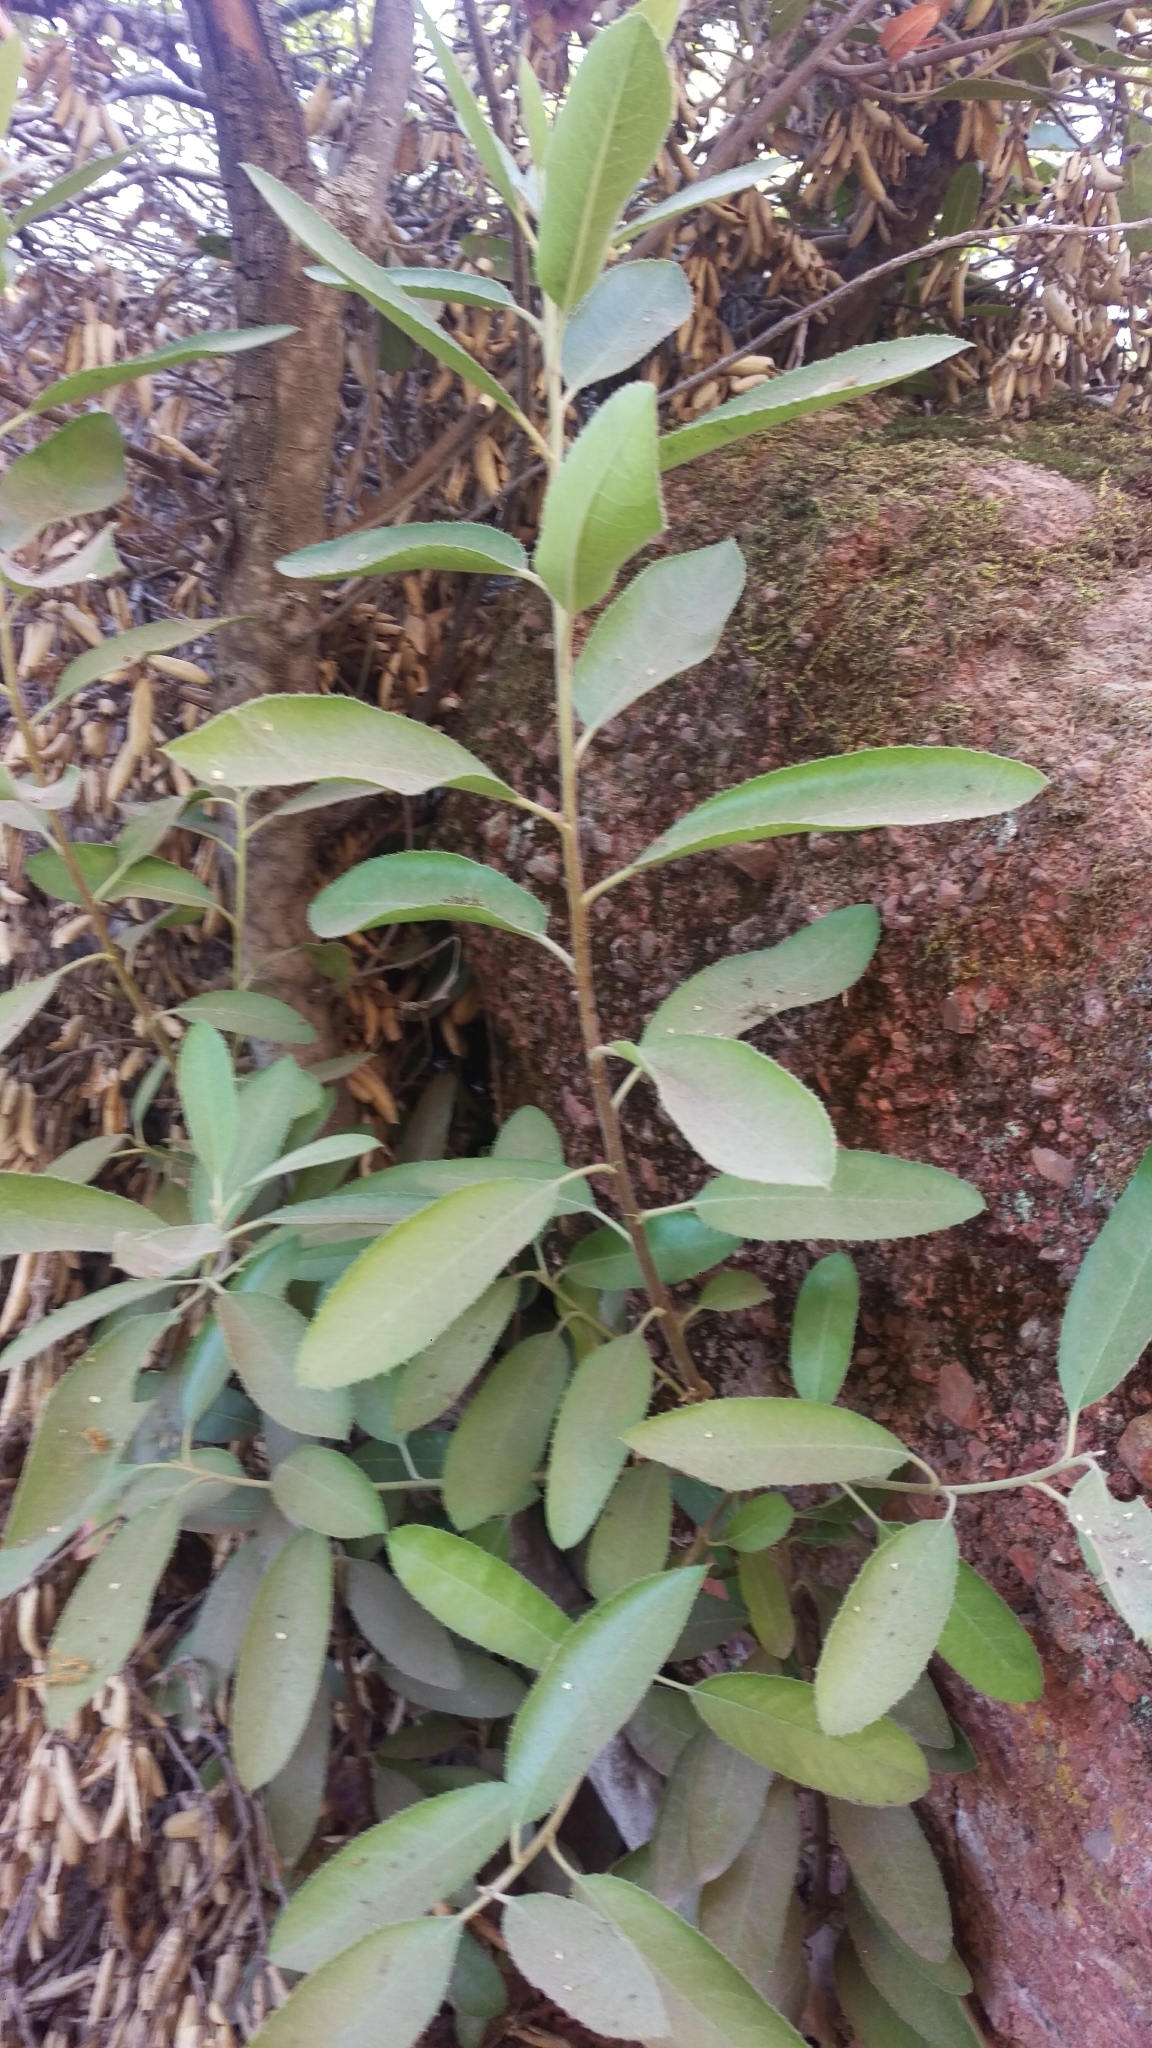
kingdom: Plantae
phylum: Tracheophyta
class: Magnoliopsida
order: Rosales
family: Rosaceae
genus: Heteromeles
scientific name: Heteromeles arbutifolia
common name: California-holly
